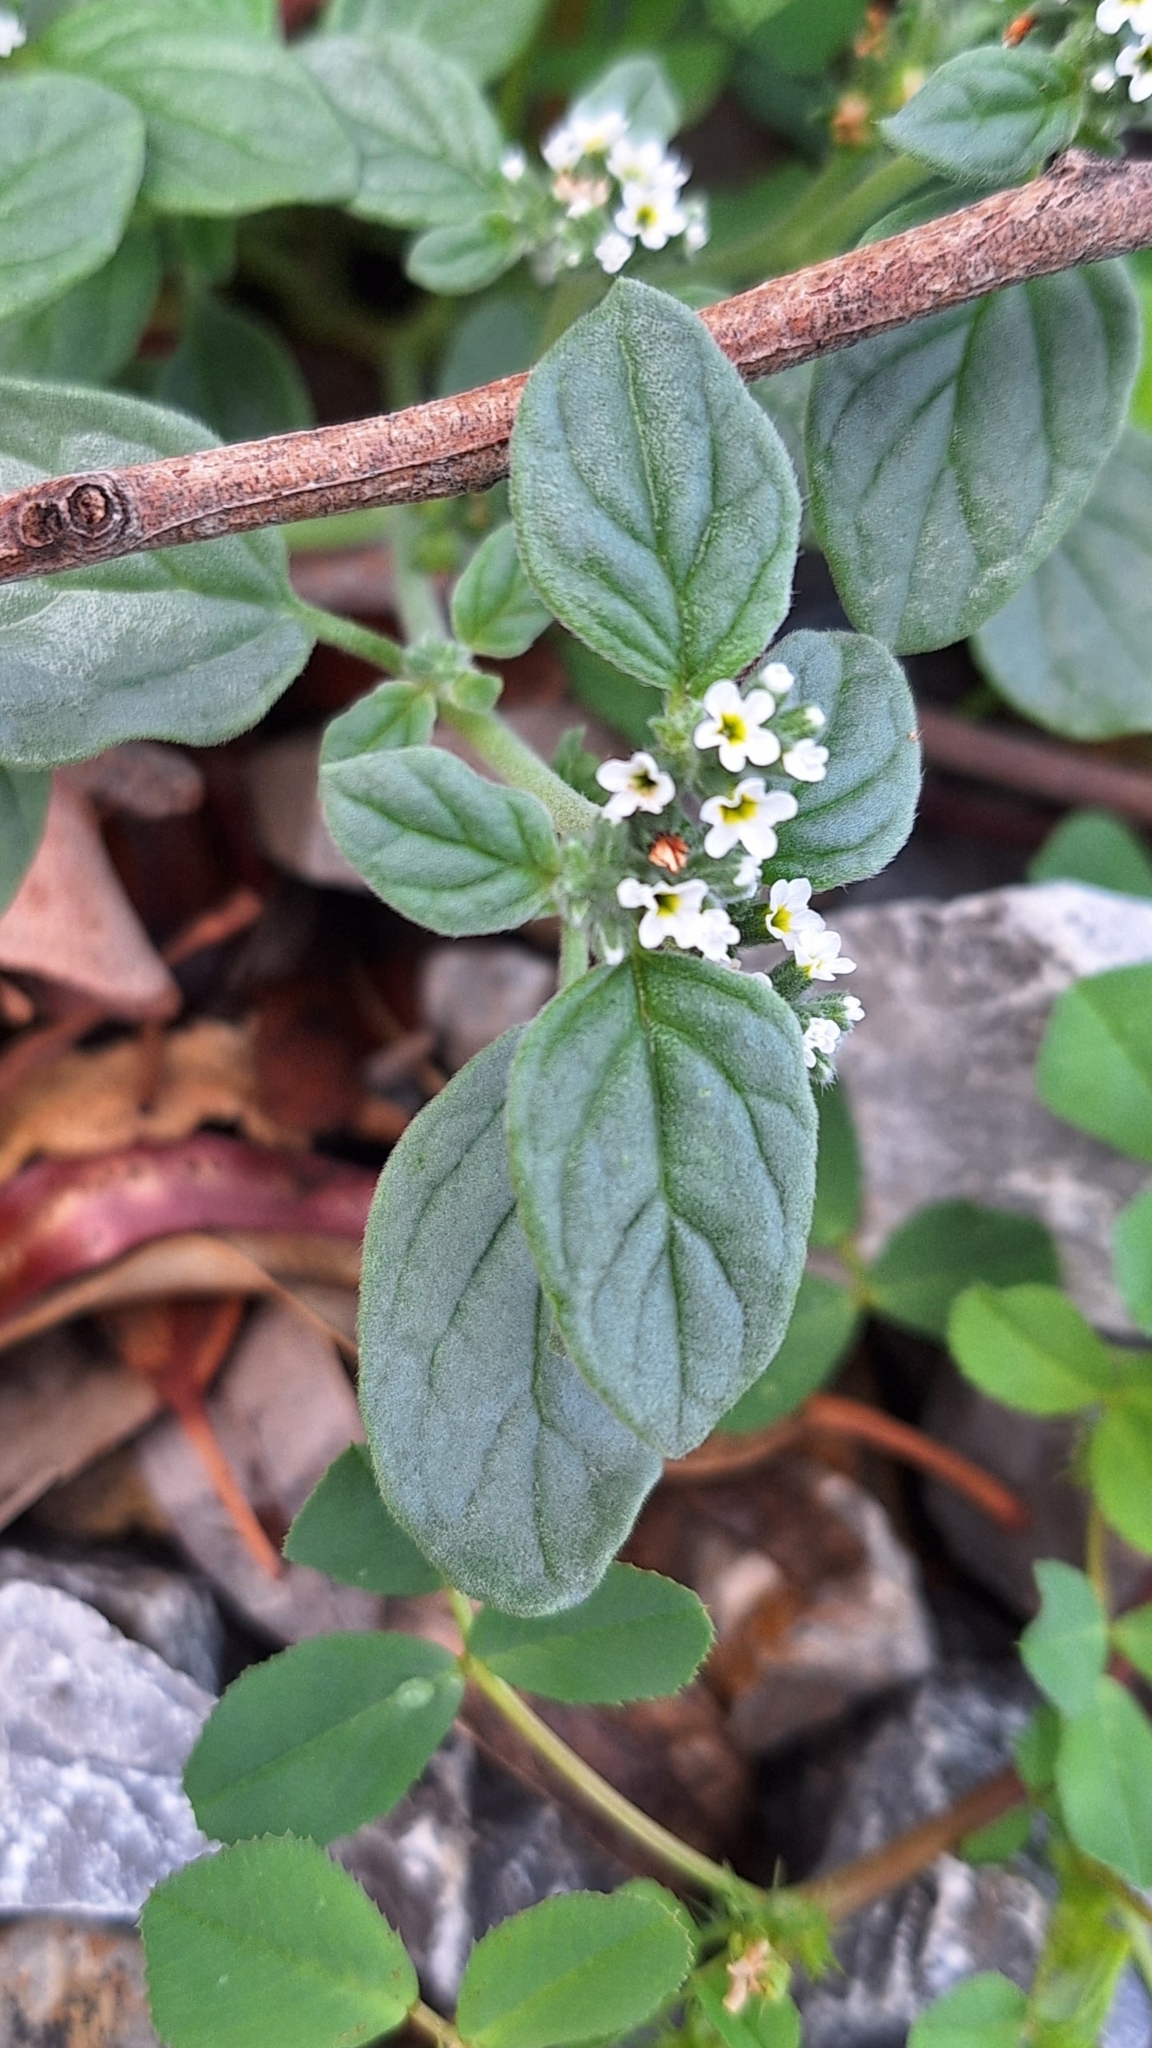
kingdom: Plantae
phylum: Tracheophyta
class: Magnoliopsida
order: Boraginales
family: Heliotropiaceae
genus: Heliotropium
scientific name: Heliotropium europaeum
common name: European heliotrope
